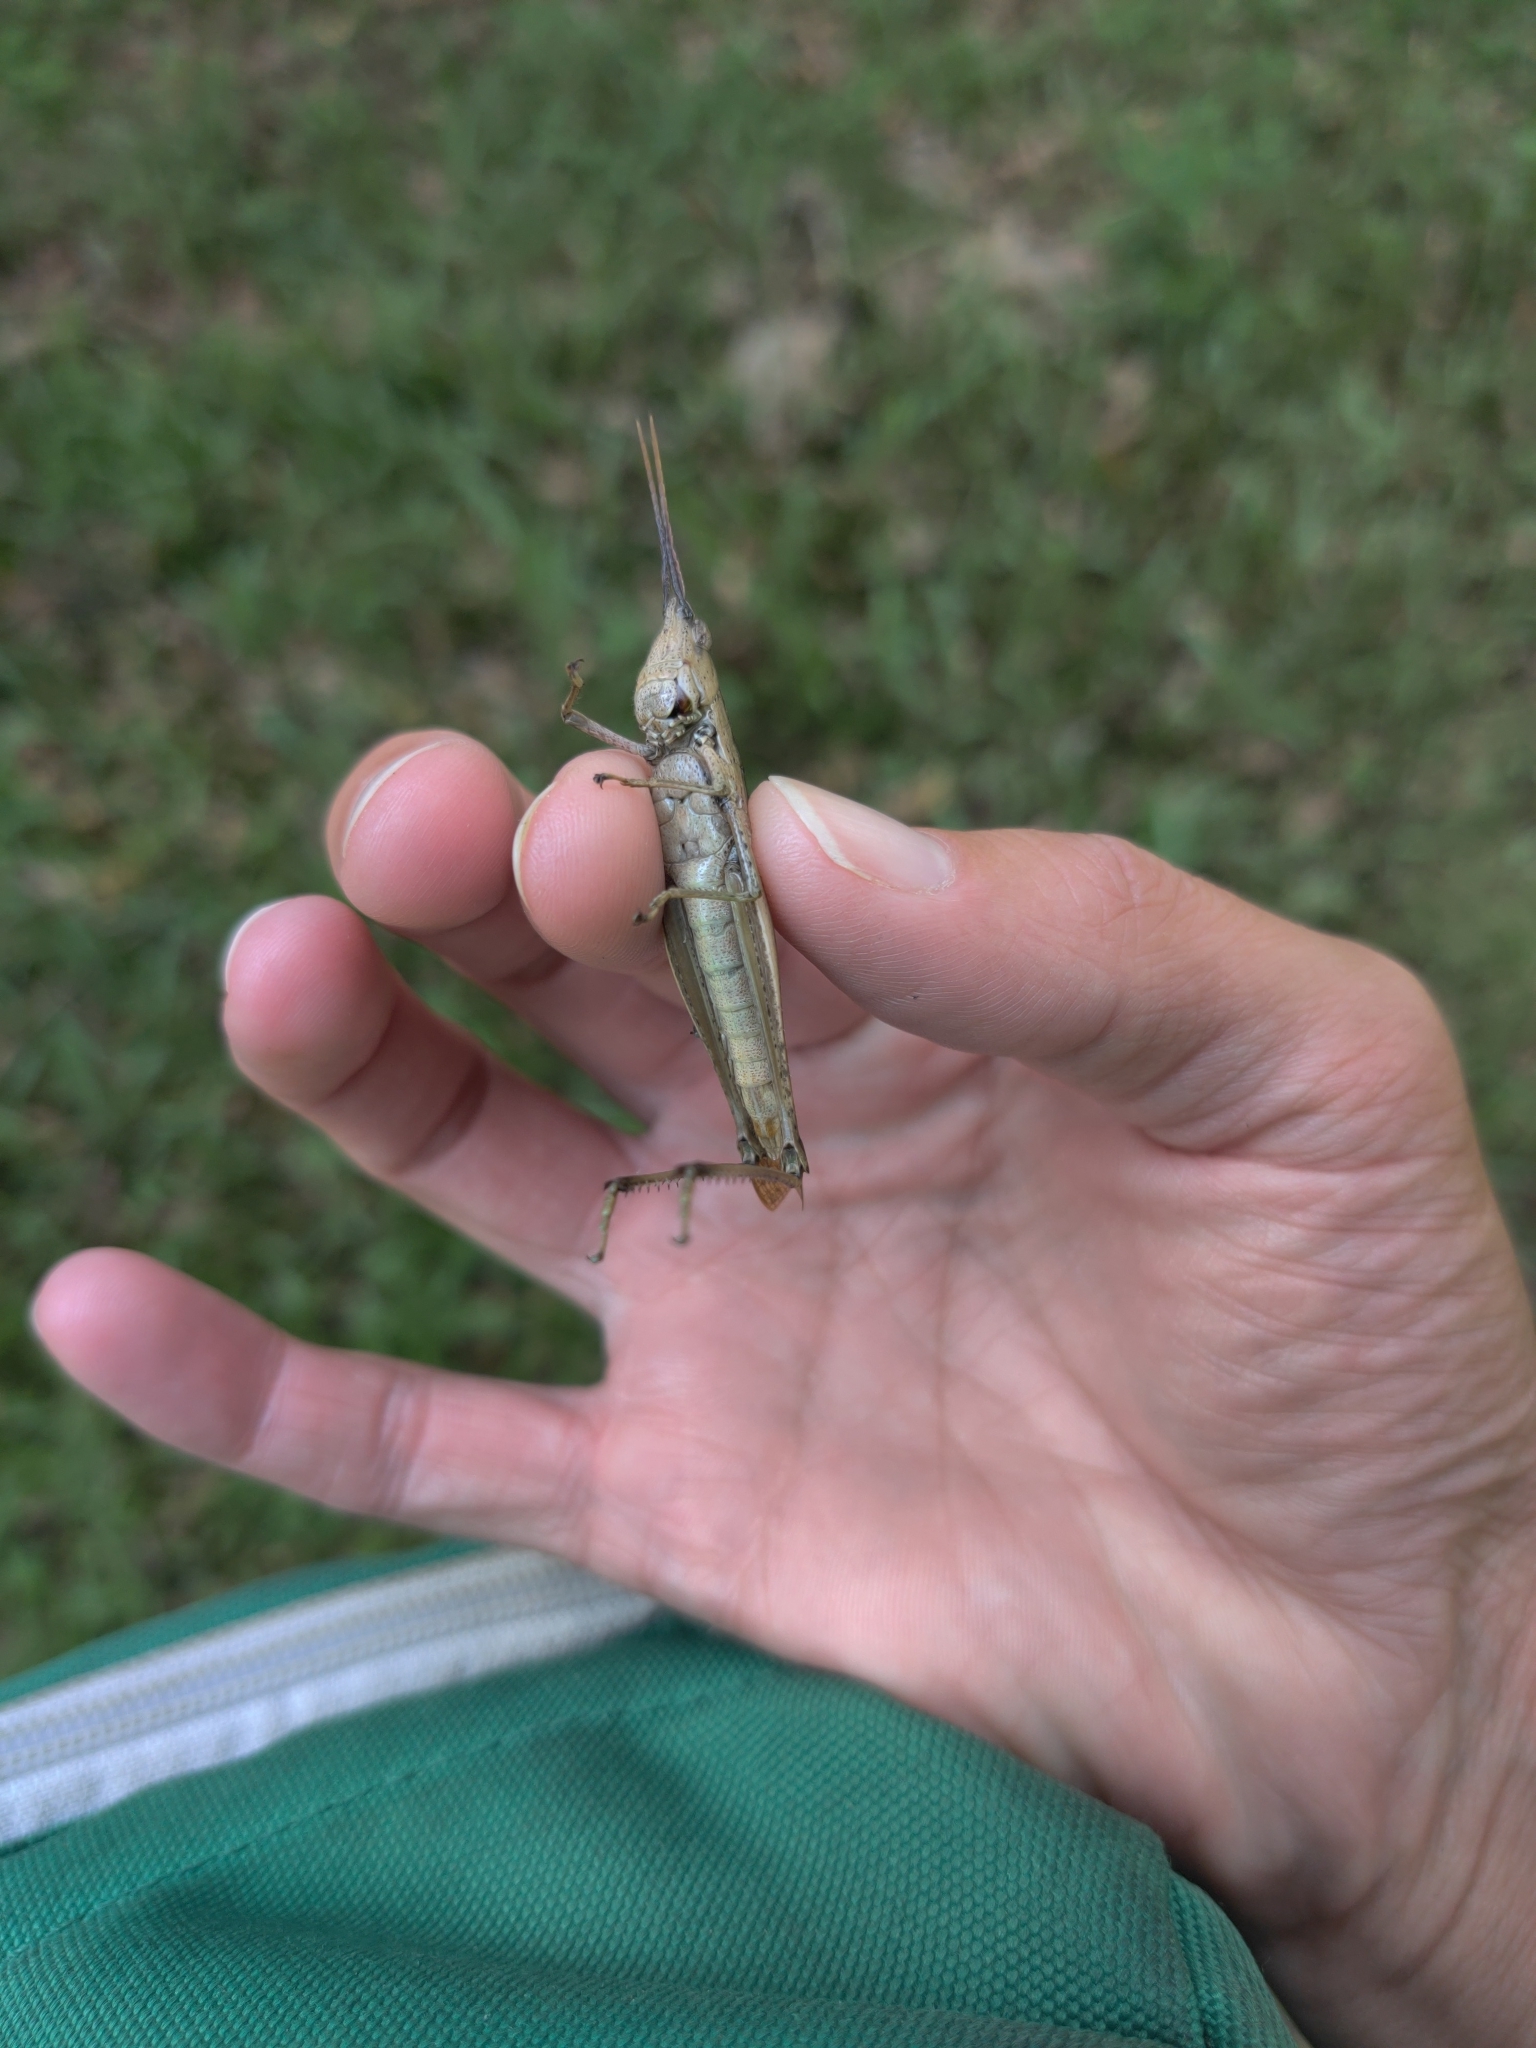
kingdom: Animalia
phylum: Arthropoda
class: Insecta
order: Orthoptera
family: Acrididae
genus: Metaleptea
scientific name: Metaleptea brevicornis
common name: Clipped-wing grasshopper
